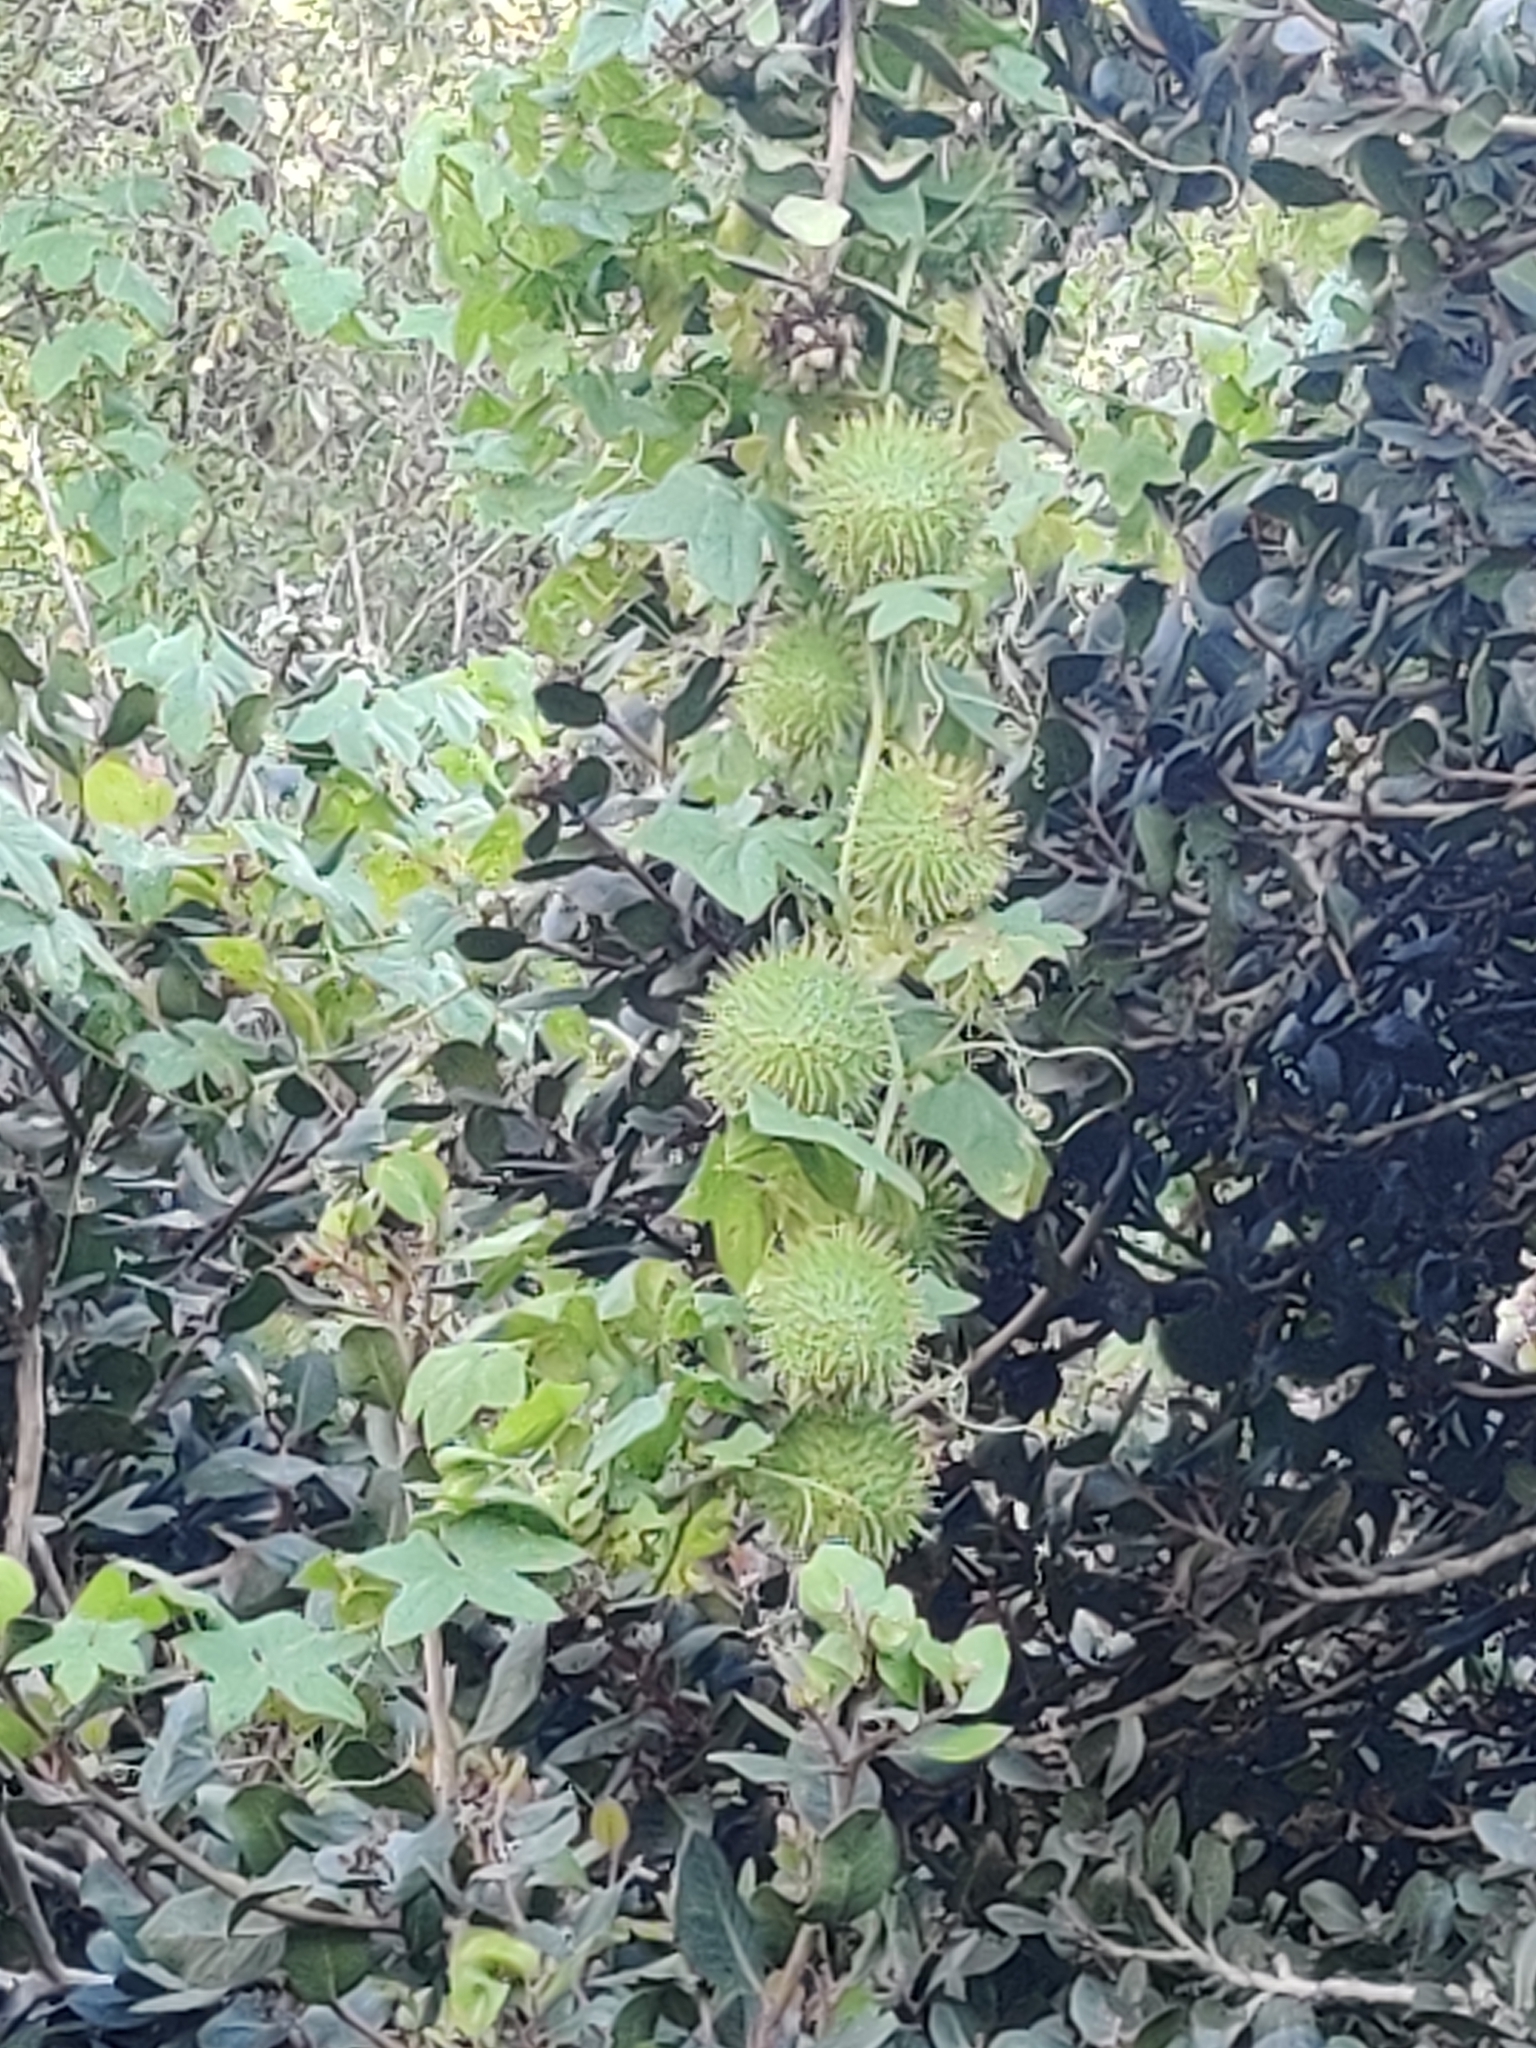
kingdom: Plantae
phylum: Tracheophyta
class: Magnoliopsida
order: Cucurbitales
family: Cucurbitaceae
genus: Marah
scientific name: Marah macrocarpa
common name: Cucamonga manroot
